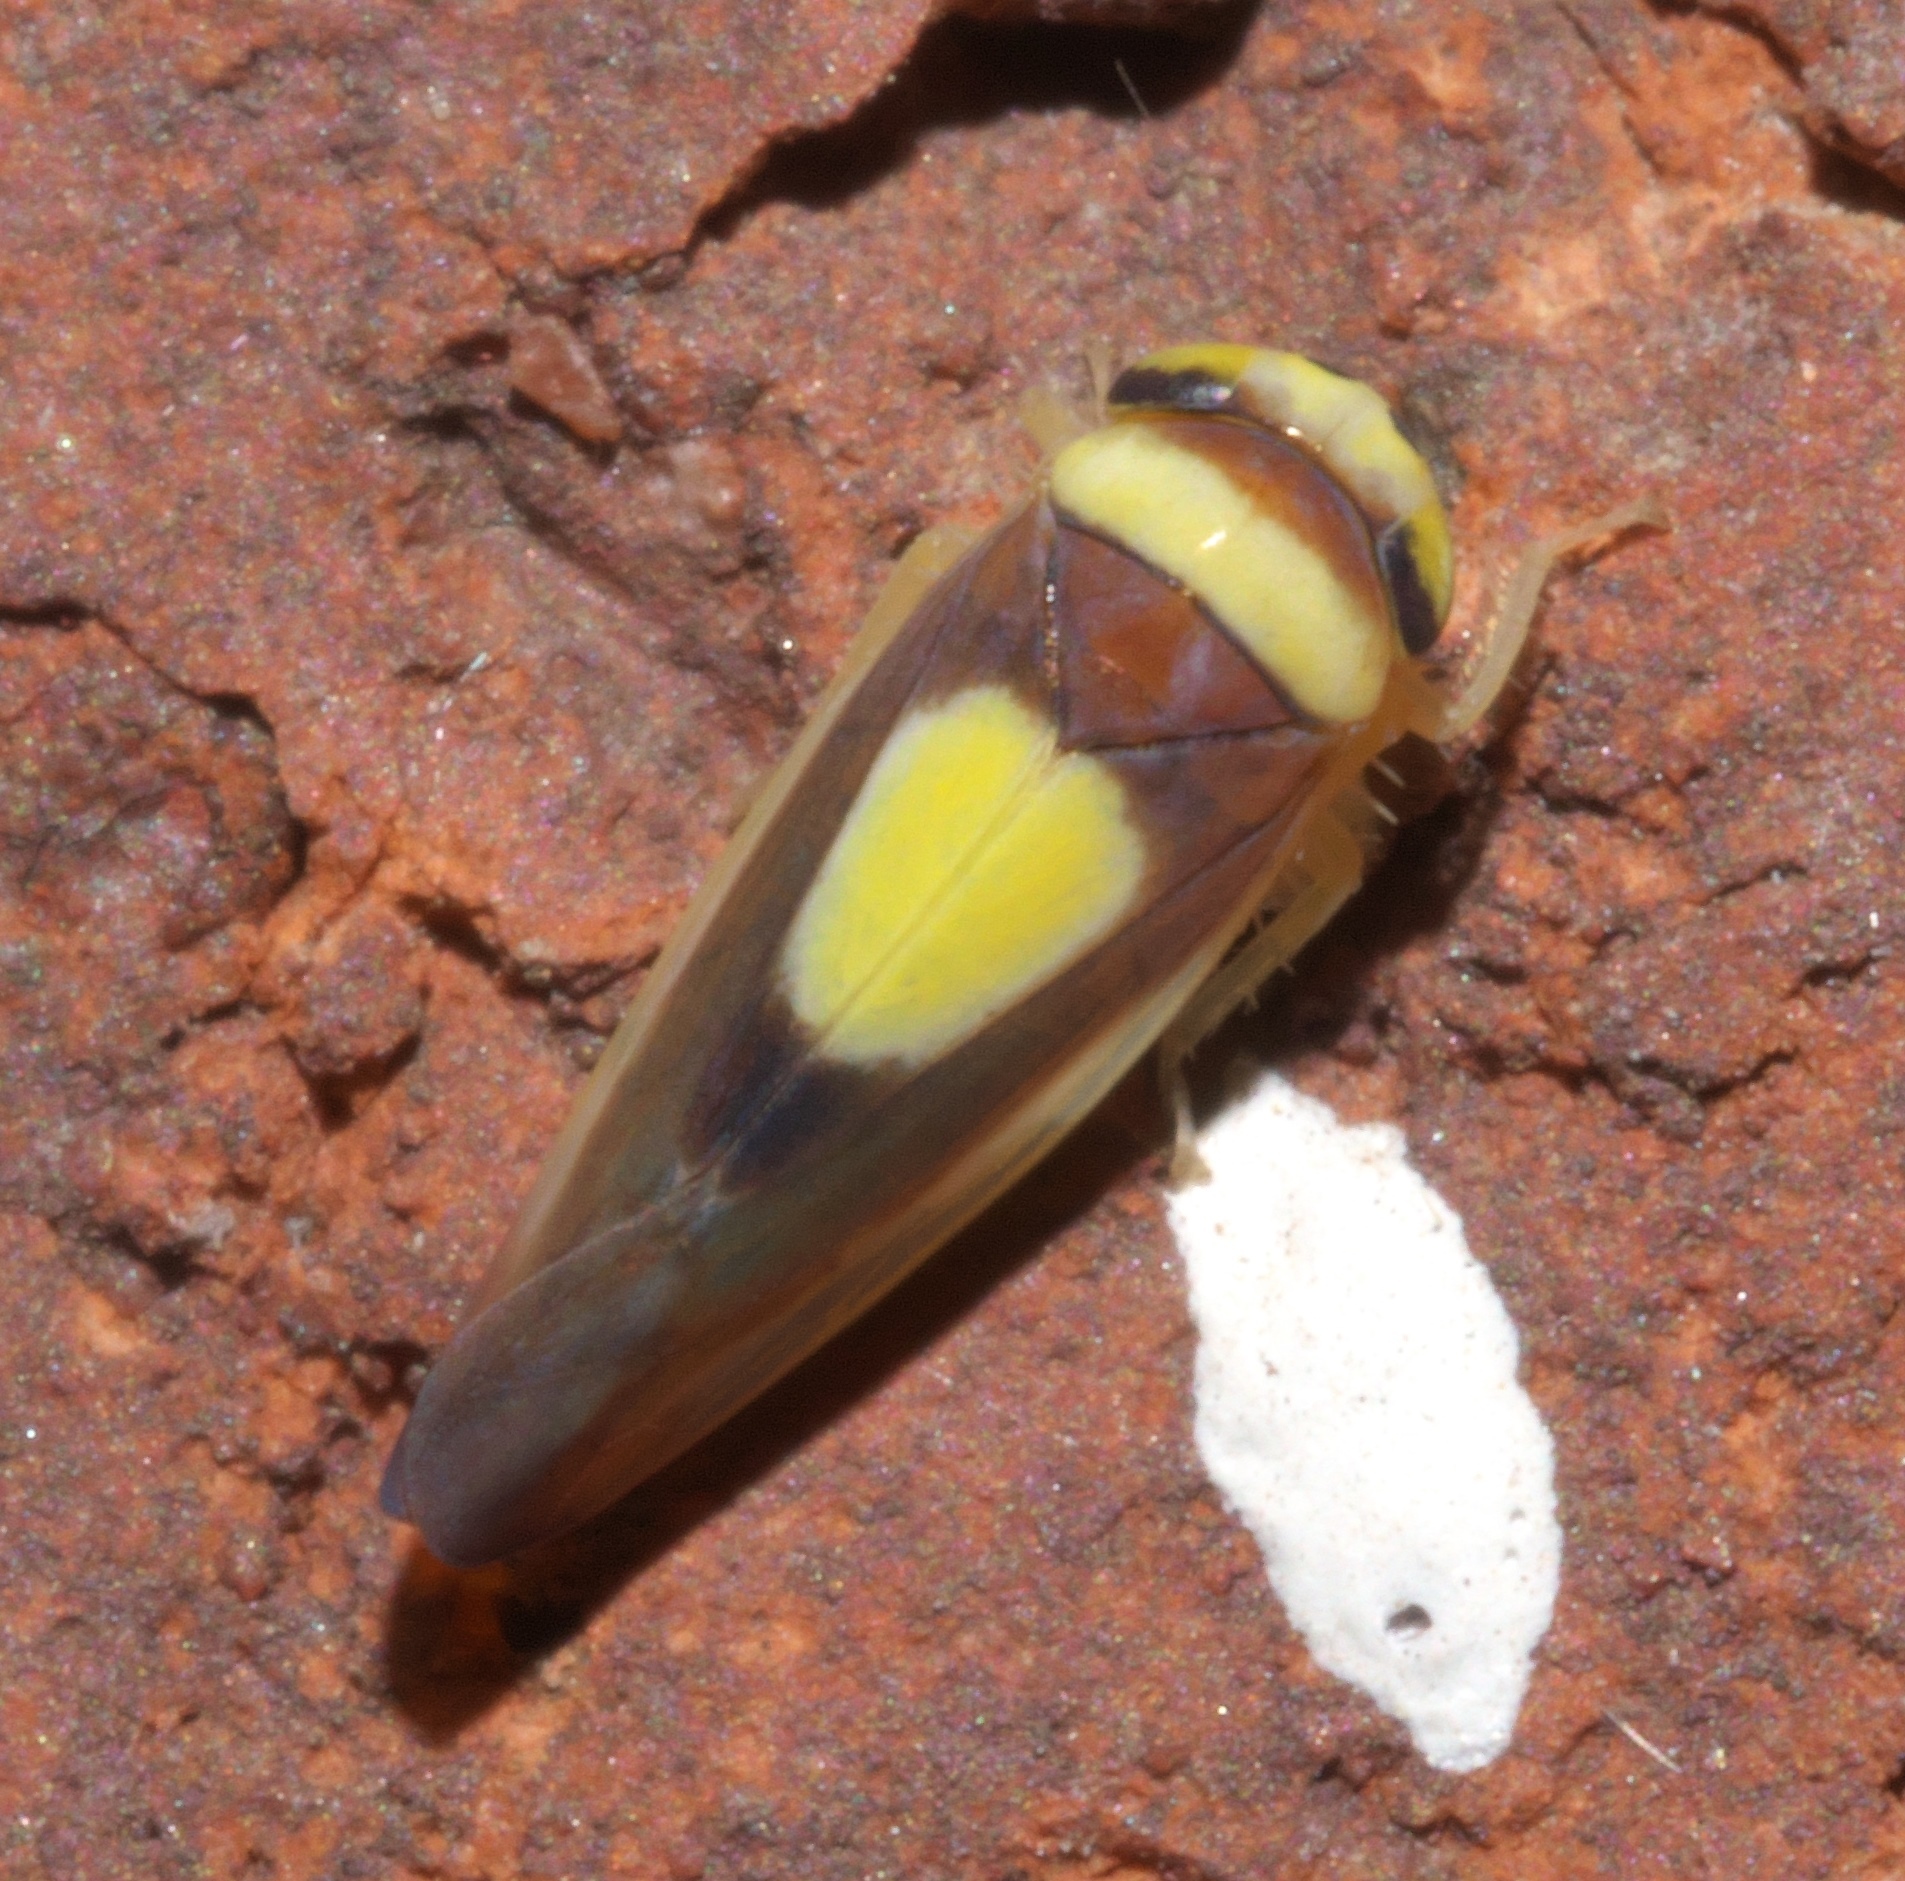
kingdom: Animalia
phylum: Arthropoda
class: Insecta
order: Hemiptera
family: Cicadellidae
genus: Colladonus
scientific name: Colladonus clitellarius
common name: The saddleback leafhopper
